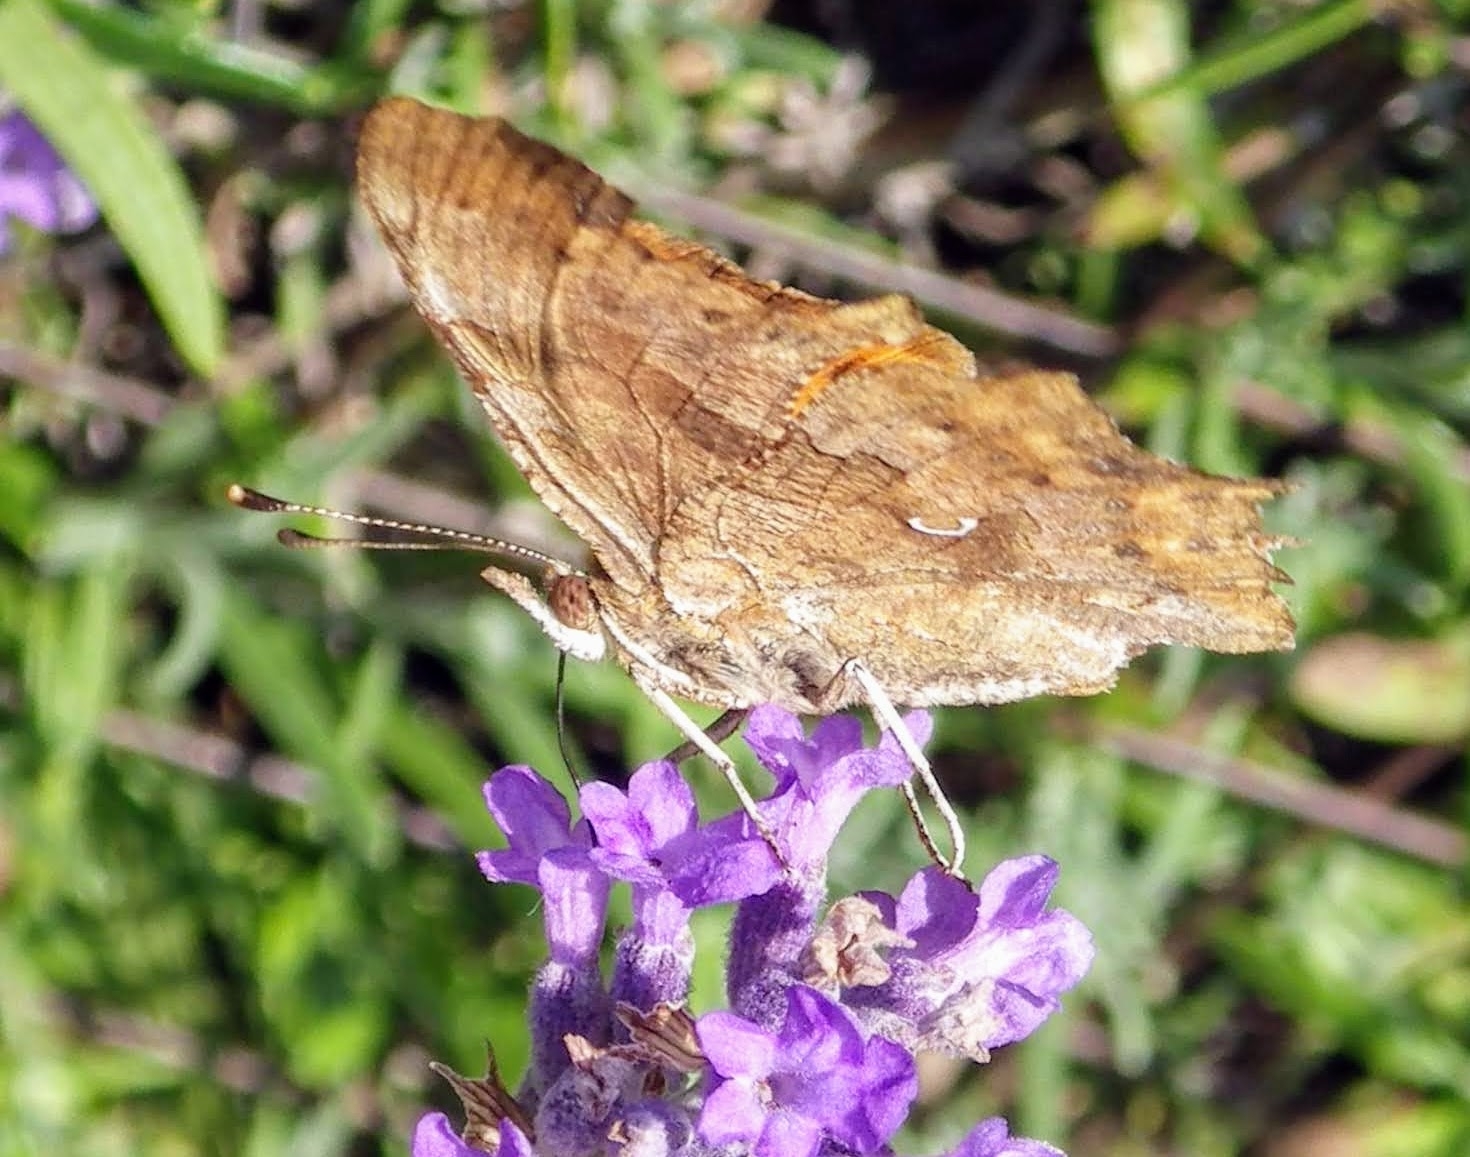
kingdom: Animalia
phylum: Arthropoda
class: Insecta
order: Lepidoptera
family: Nymphalidae
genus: Polygonia
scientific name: Polygonia c-album
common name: Comma
